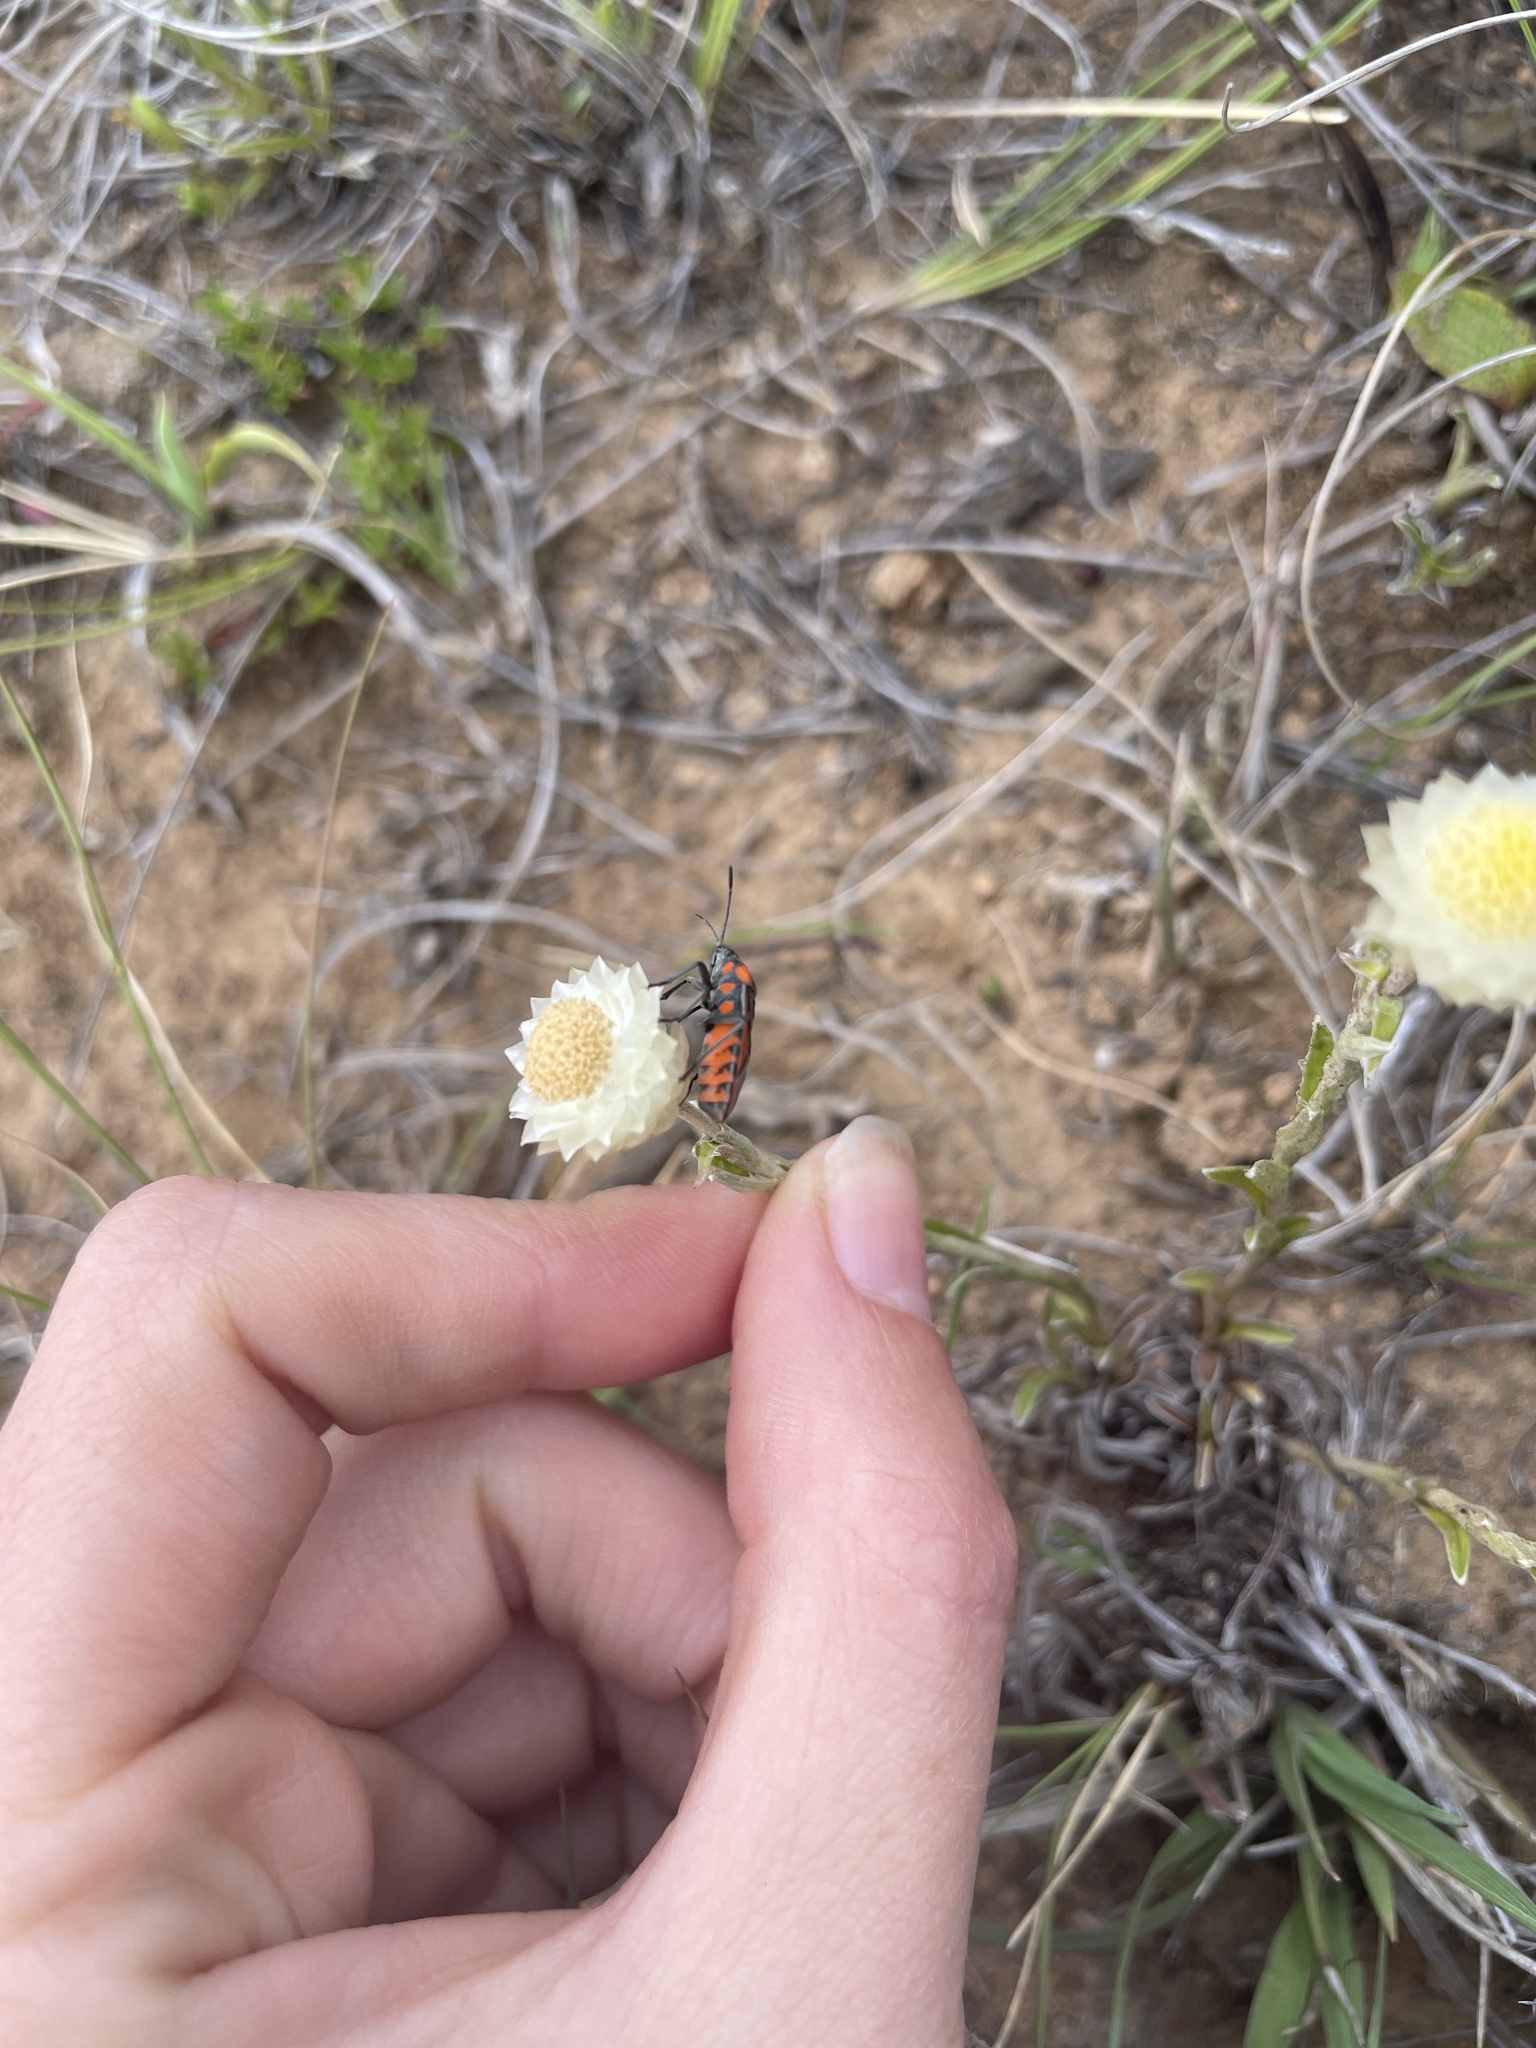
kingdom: Animalia
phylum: Arthropoda
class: Insecta
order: Hemiptera
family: Lygaeidae
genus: Spilostethus
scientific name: Spilostethus rivularis
